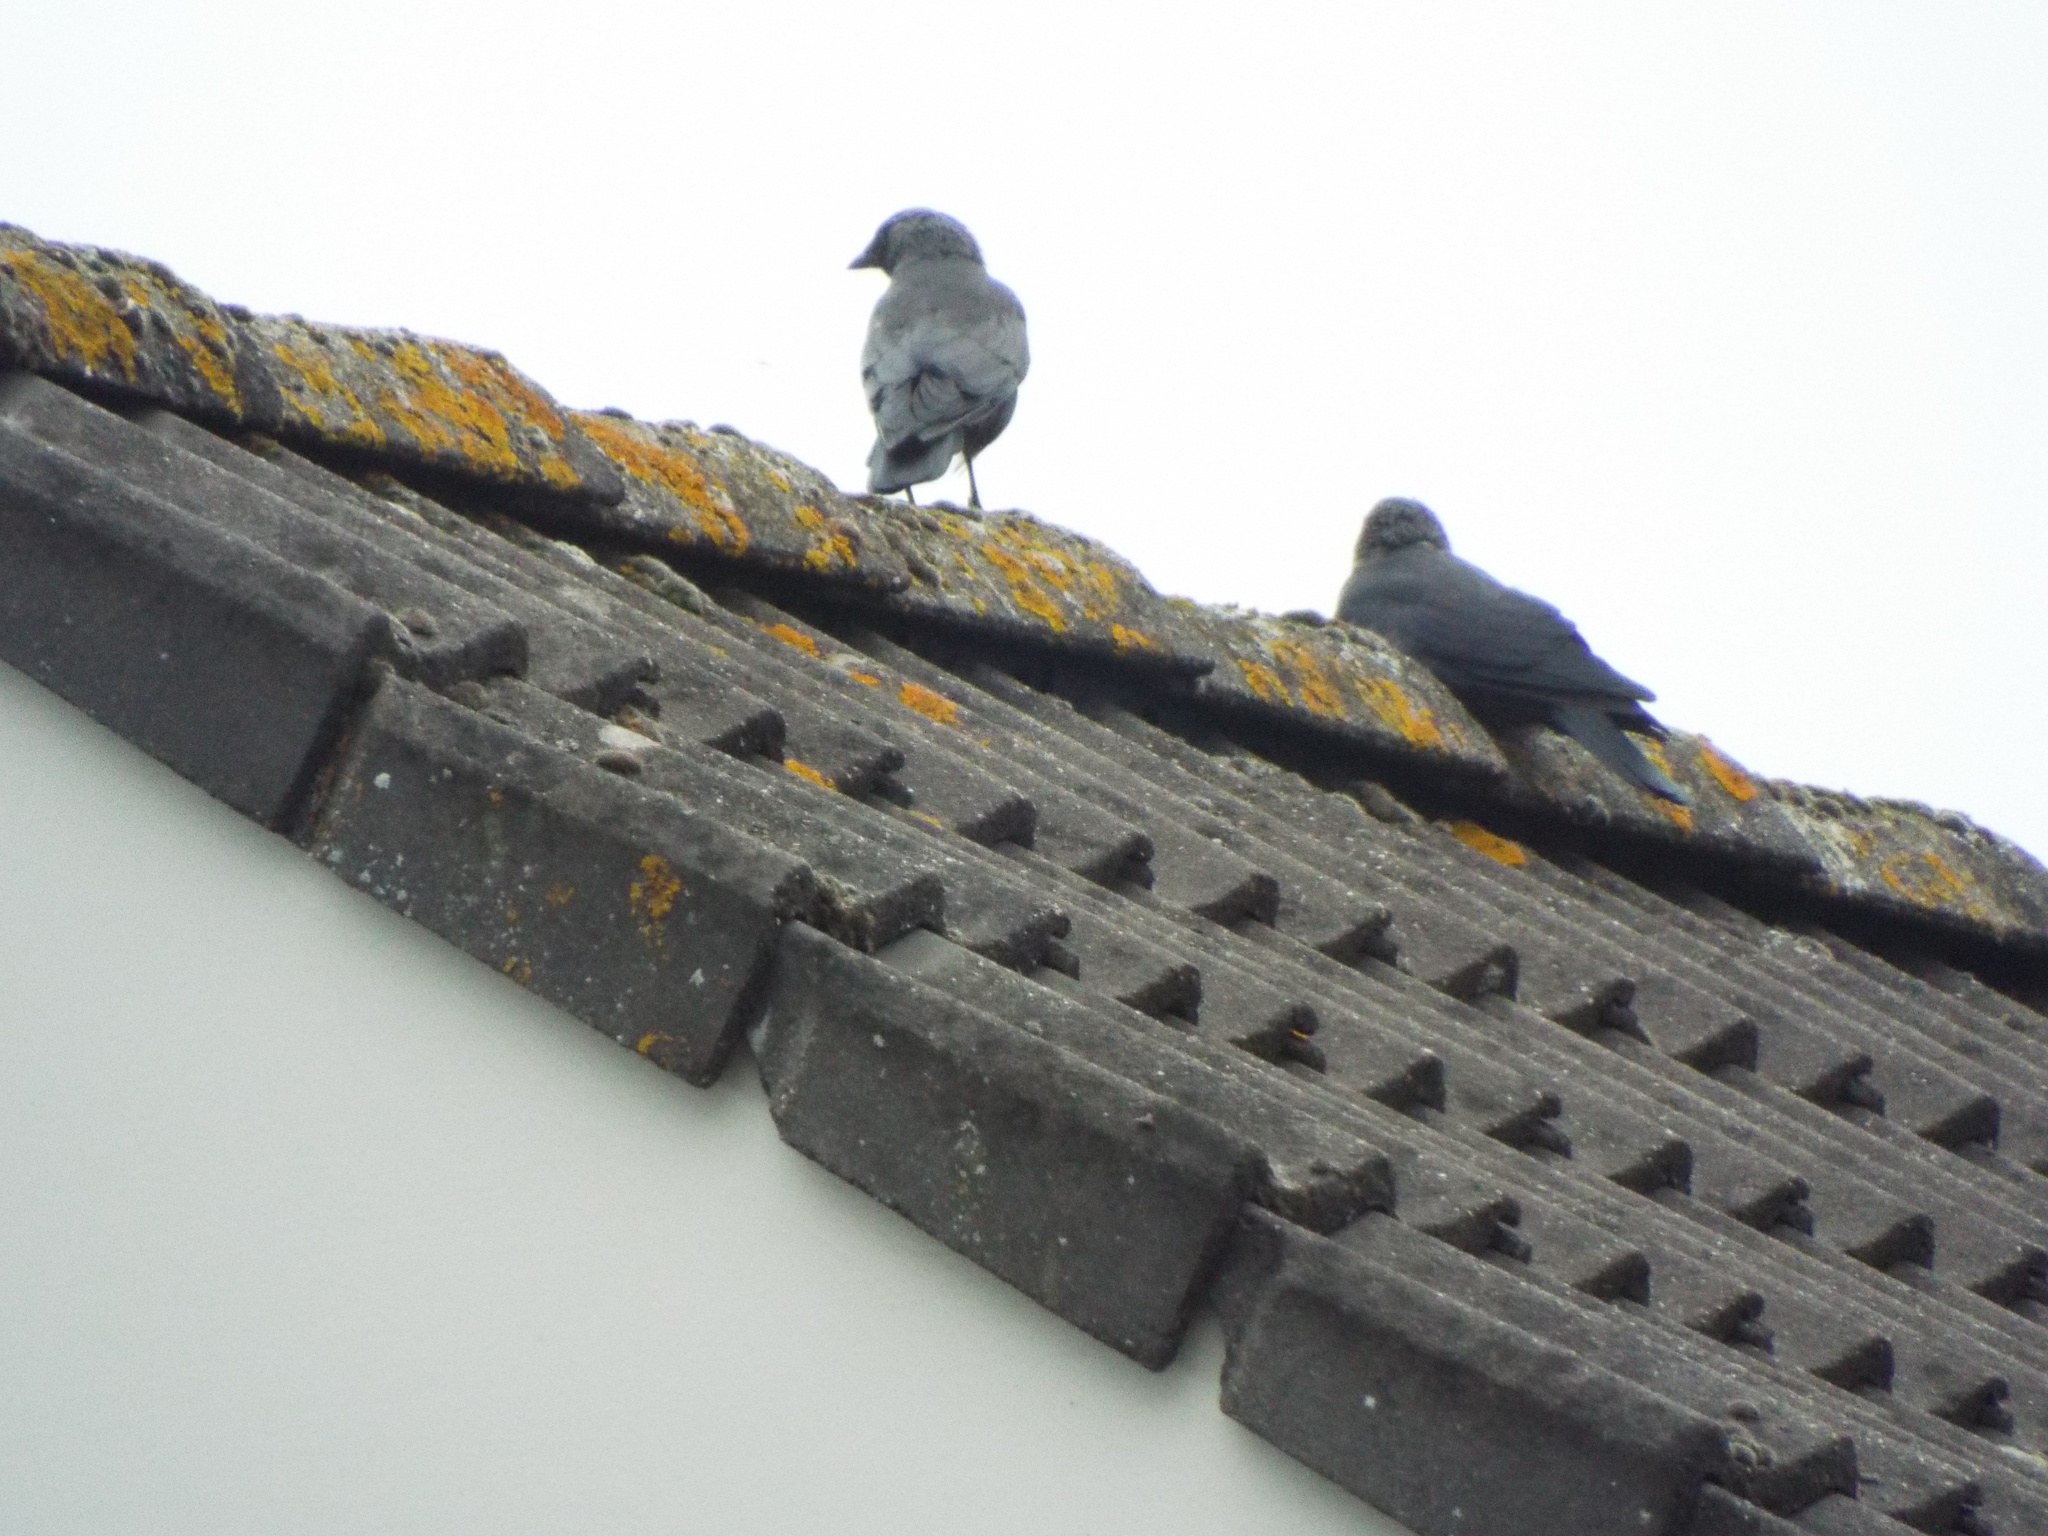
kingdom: Animalia
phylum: Chordata
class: Aves
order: Passeriformes
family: Corvidae
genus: Coloeus
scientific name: Coloeus monedula
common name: Western jackdaw
